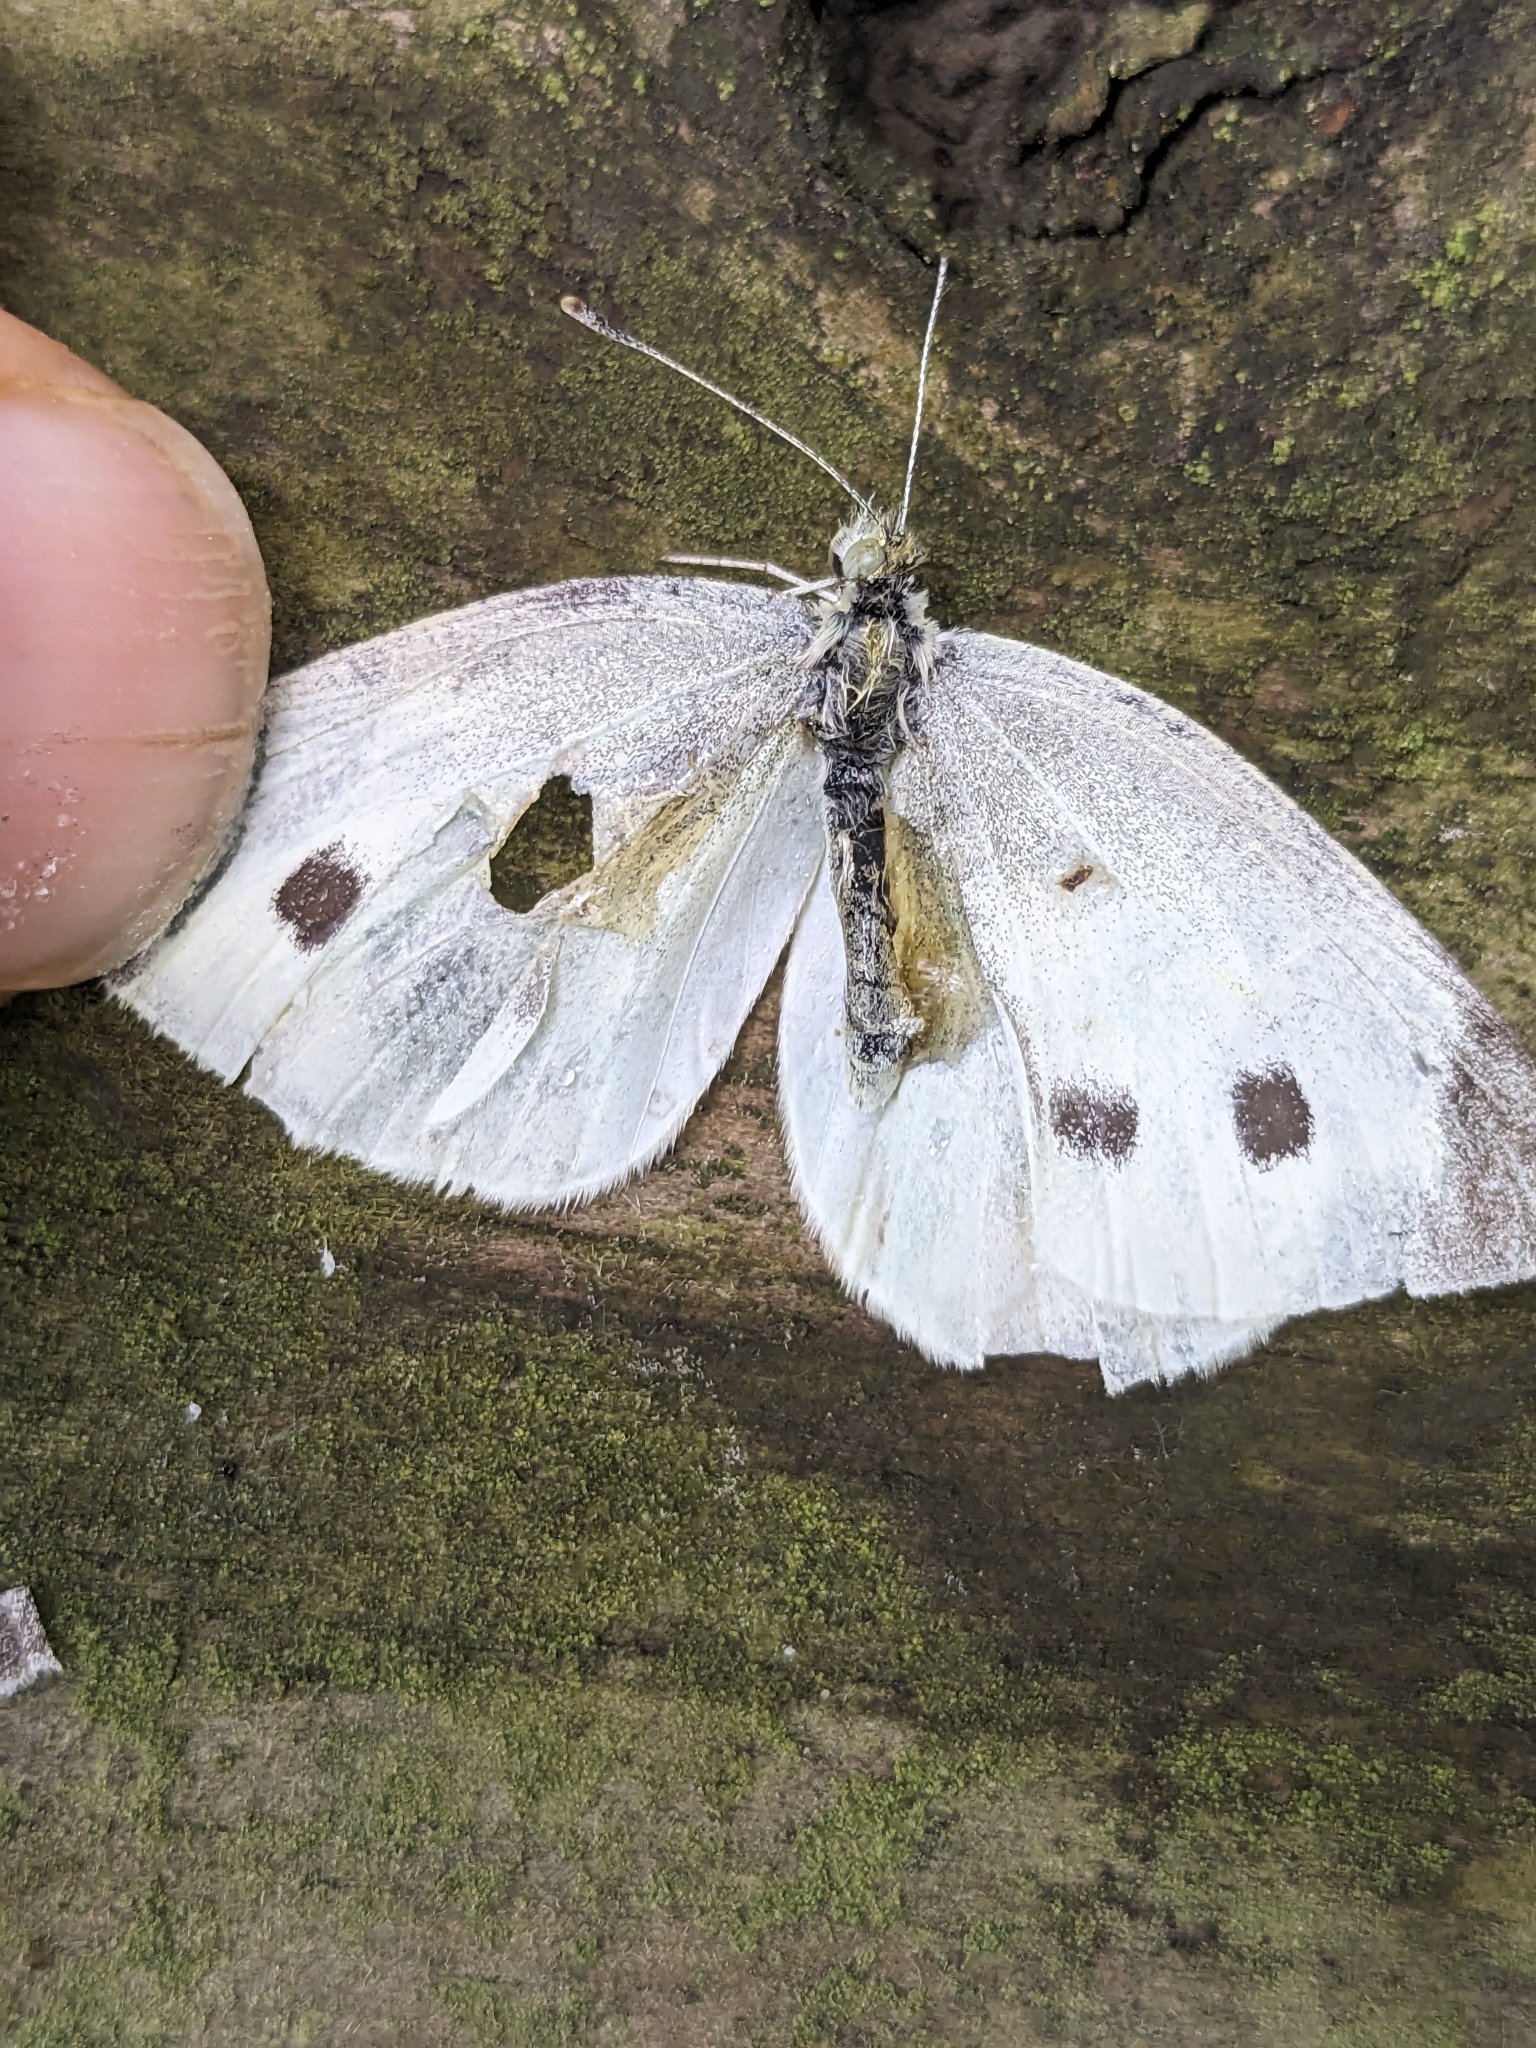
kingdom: Animalia
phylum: Arthropoda
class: Insecta
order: Lepidoptera
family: Pieridae
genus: Pieris
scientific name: Pieris rapae
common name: Small white
